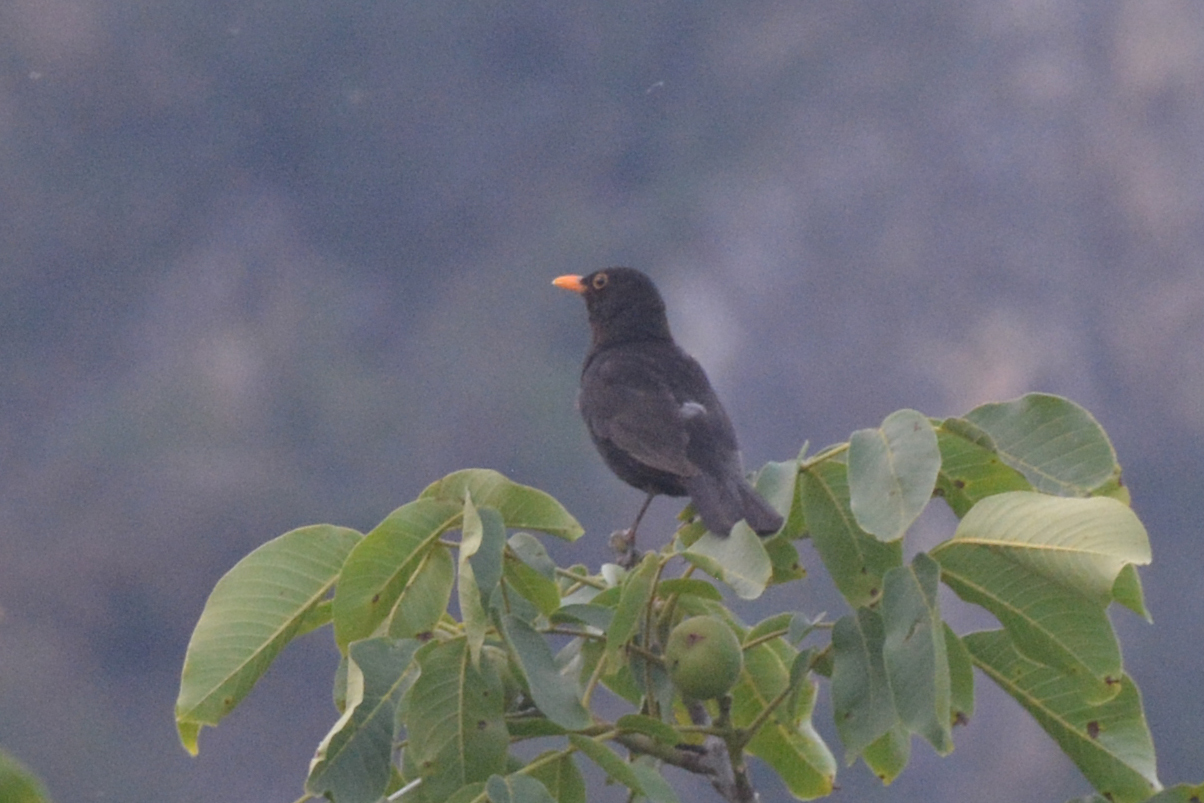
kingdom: Animalia
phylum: Chordata
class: Aves
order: Passeriformes
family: Turdidae
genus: Turdus
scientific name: Turdus merula
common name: Common blackbird
